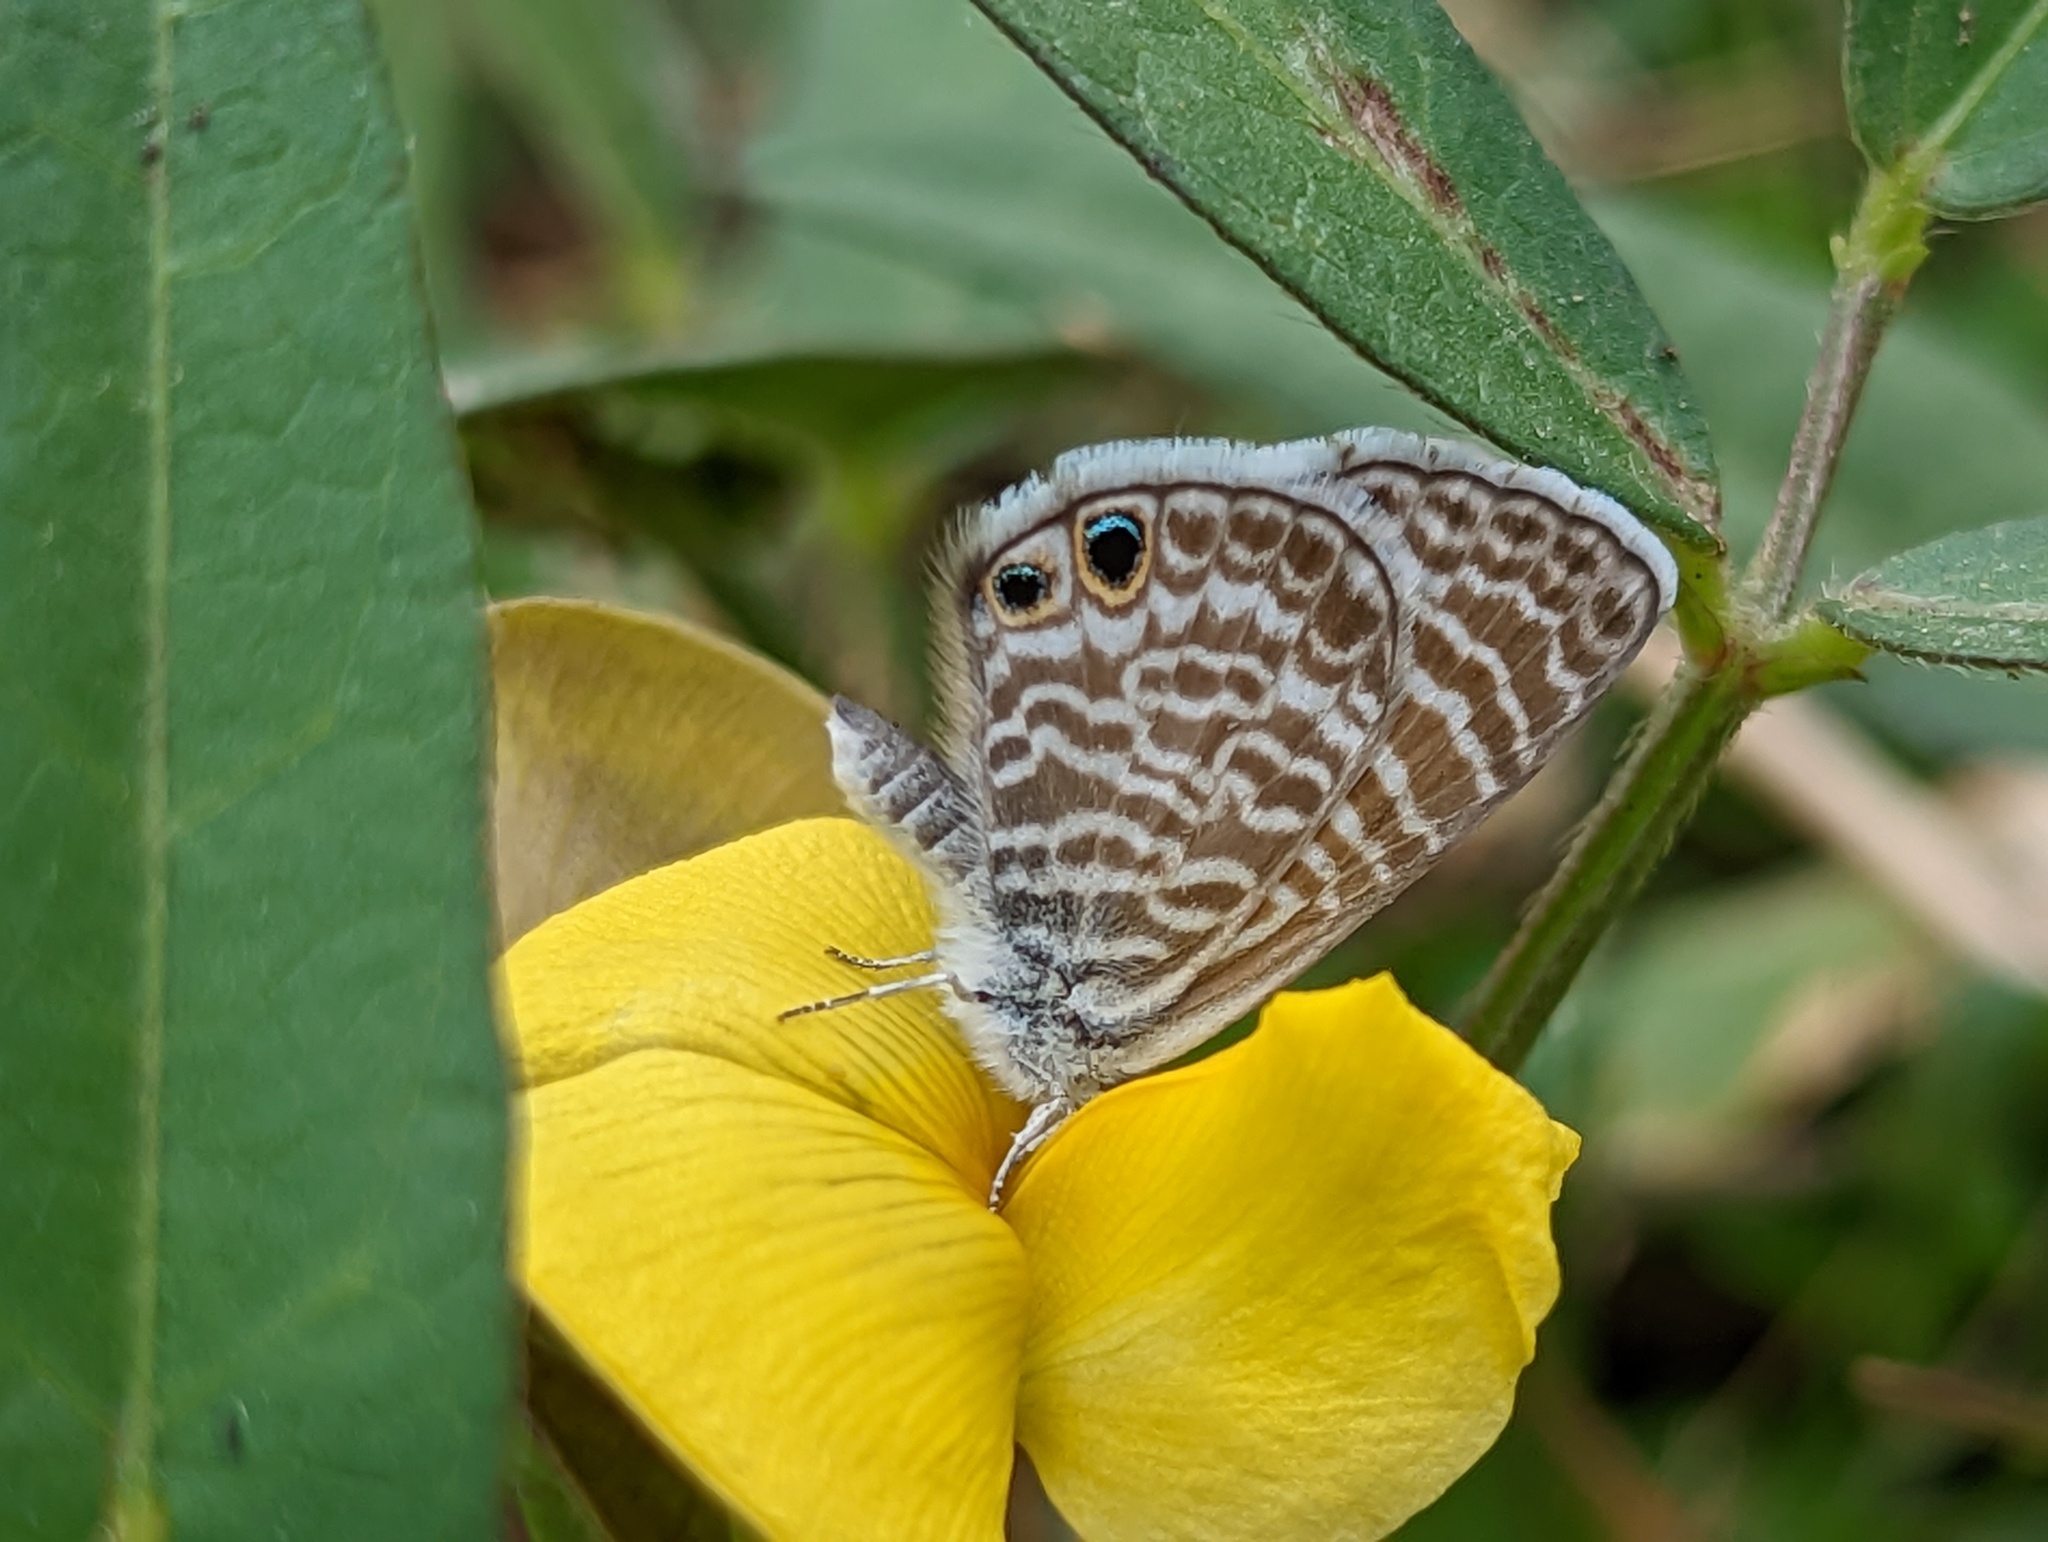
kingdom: Animalia
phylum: Arthropoda
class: Insecta
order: Lepidoptera
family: Lycaenidae
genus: Leptotes
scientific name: Leptotes marina
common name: Marine blue
